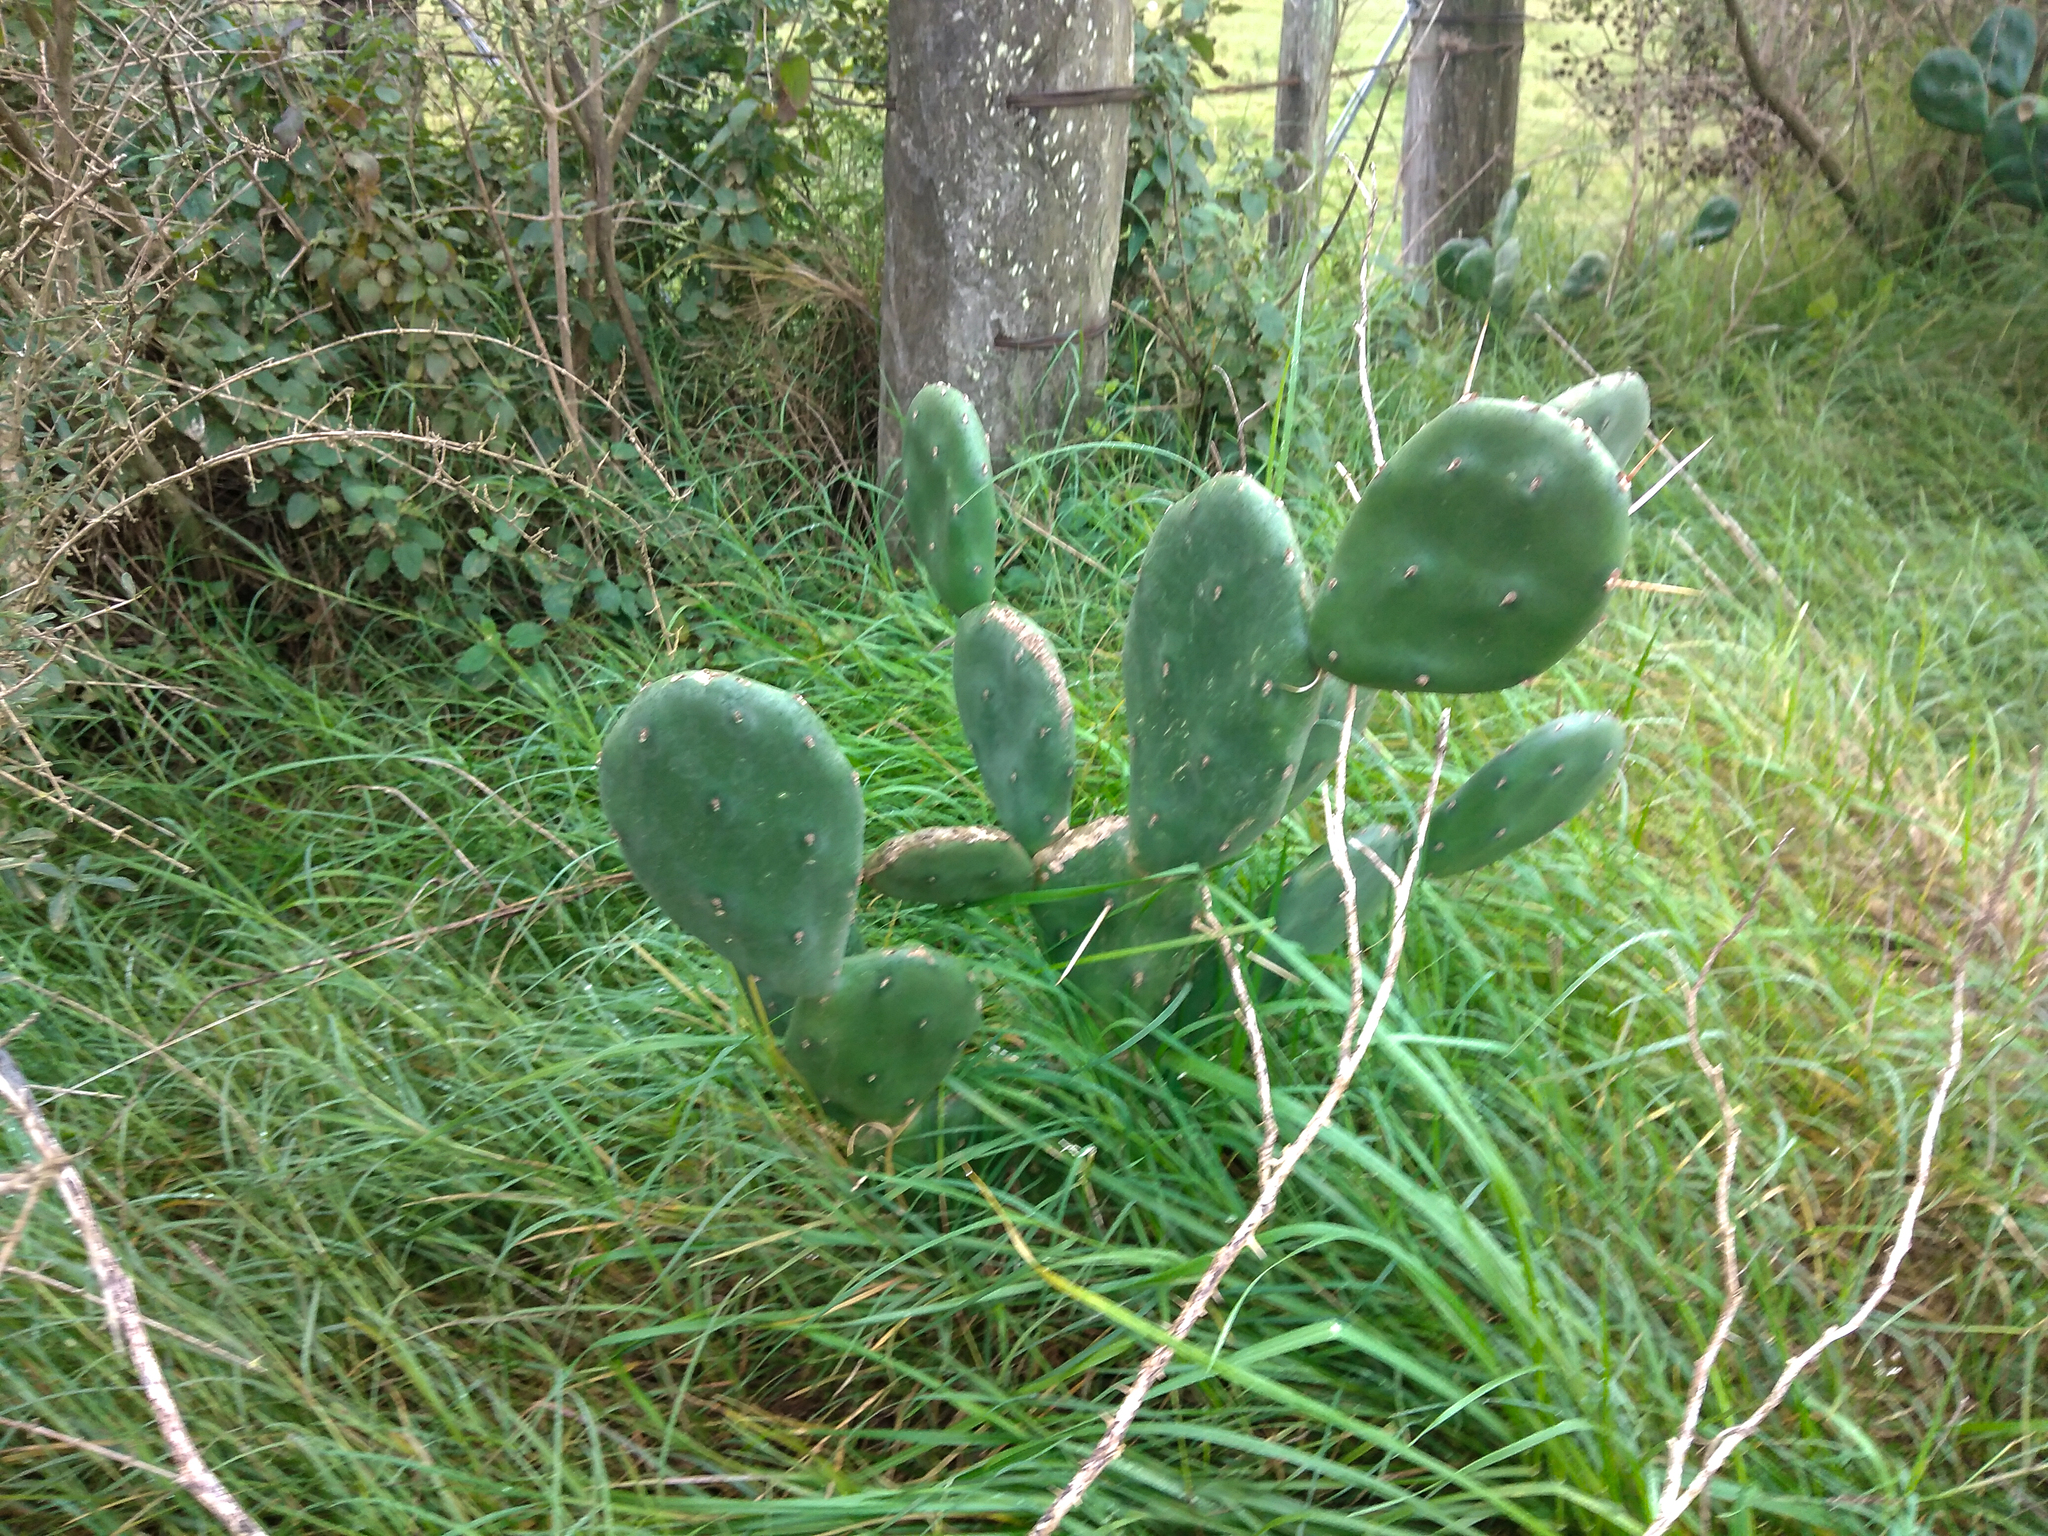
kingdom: Plantae
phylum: Tracheophyta
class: Magnoliopsida
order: Caryophyllales
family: Cactaceae
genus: Opuntia
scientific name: Opuntia elata
